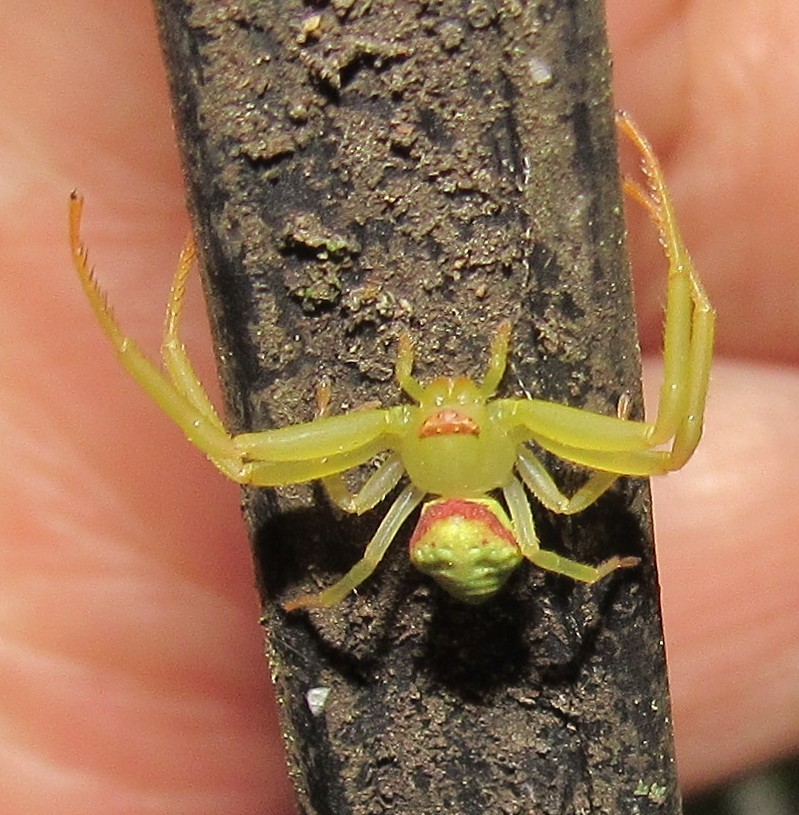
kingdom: Animalia
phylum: Arthropoda
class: Arachnida
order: Araneae
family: Thomisidae
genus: Misumenops
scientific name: Misumenops callinurus
